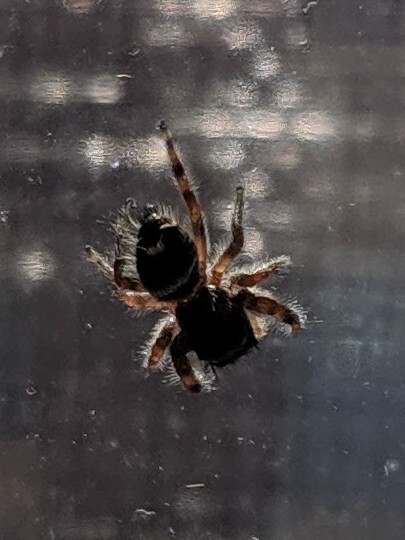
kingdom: Animalia
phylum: Arthropoda
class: Arachnida
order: Araneae
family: Salticidae
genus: Phidippus
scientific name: Phidippus audax
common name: Bold jumper
